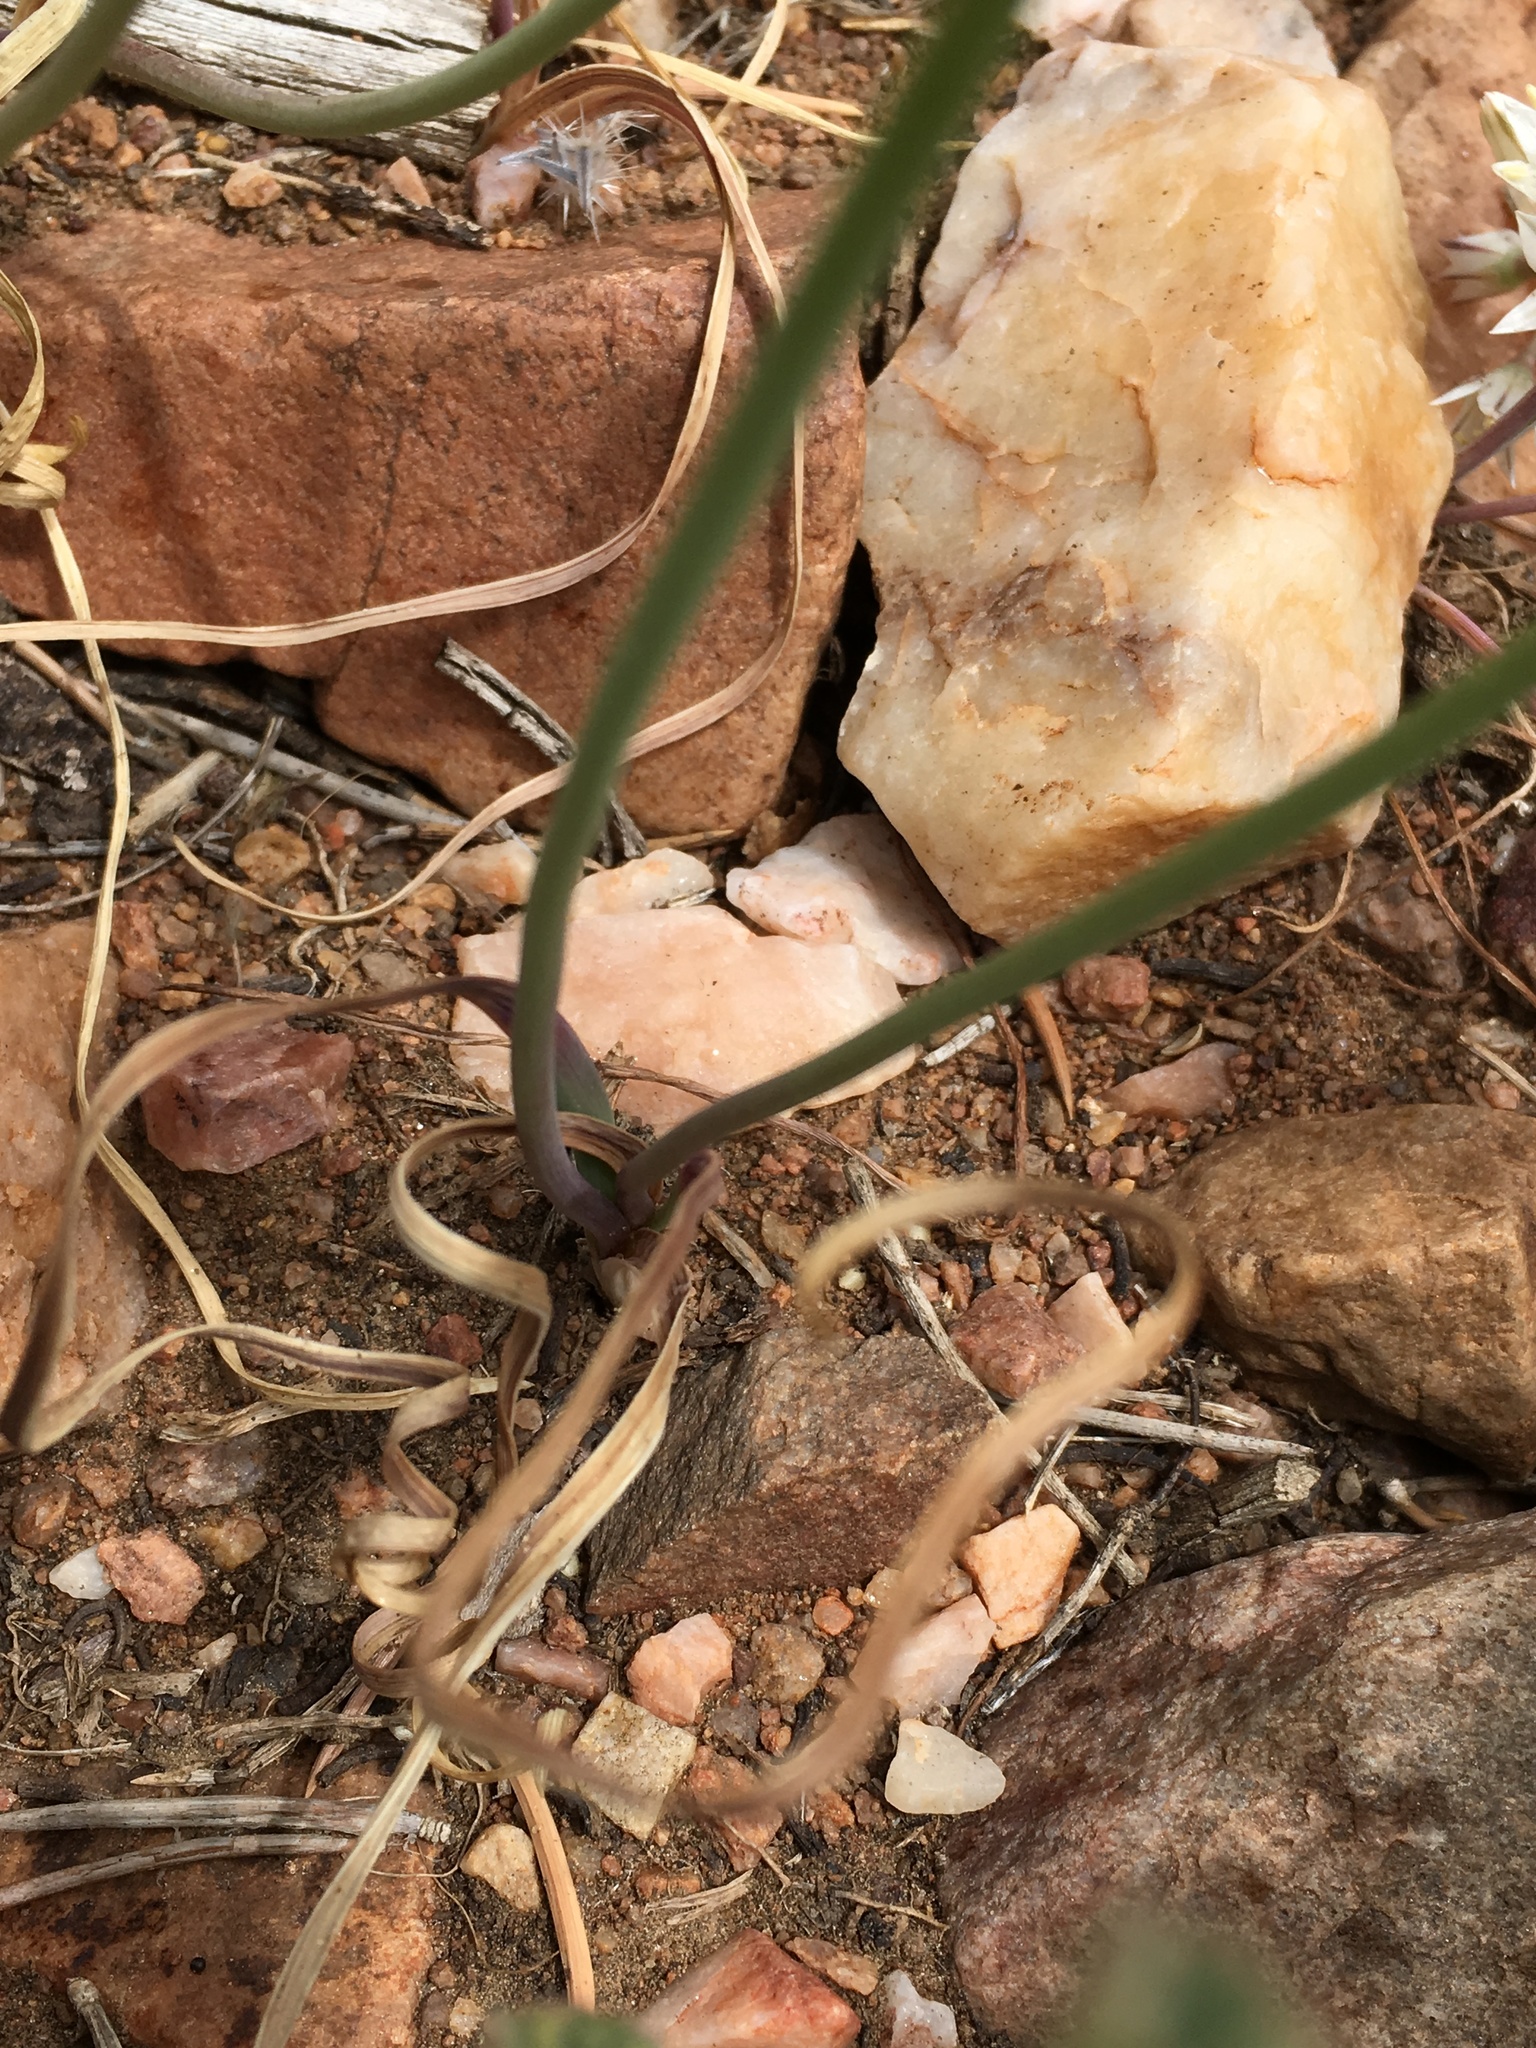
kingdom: Plantae
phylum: Tracheophyta
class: Liliopsida
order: Asparagales
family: Amaryllidaceae
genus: Allium
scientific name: Allium lacunosum
